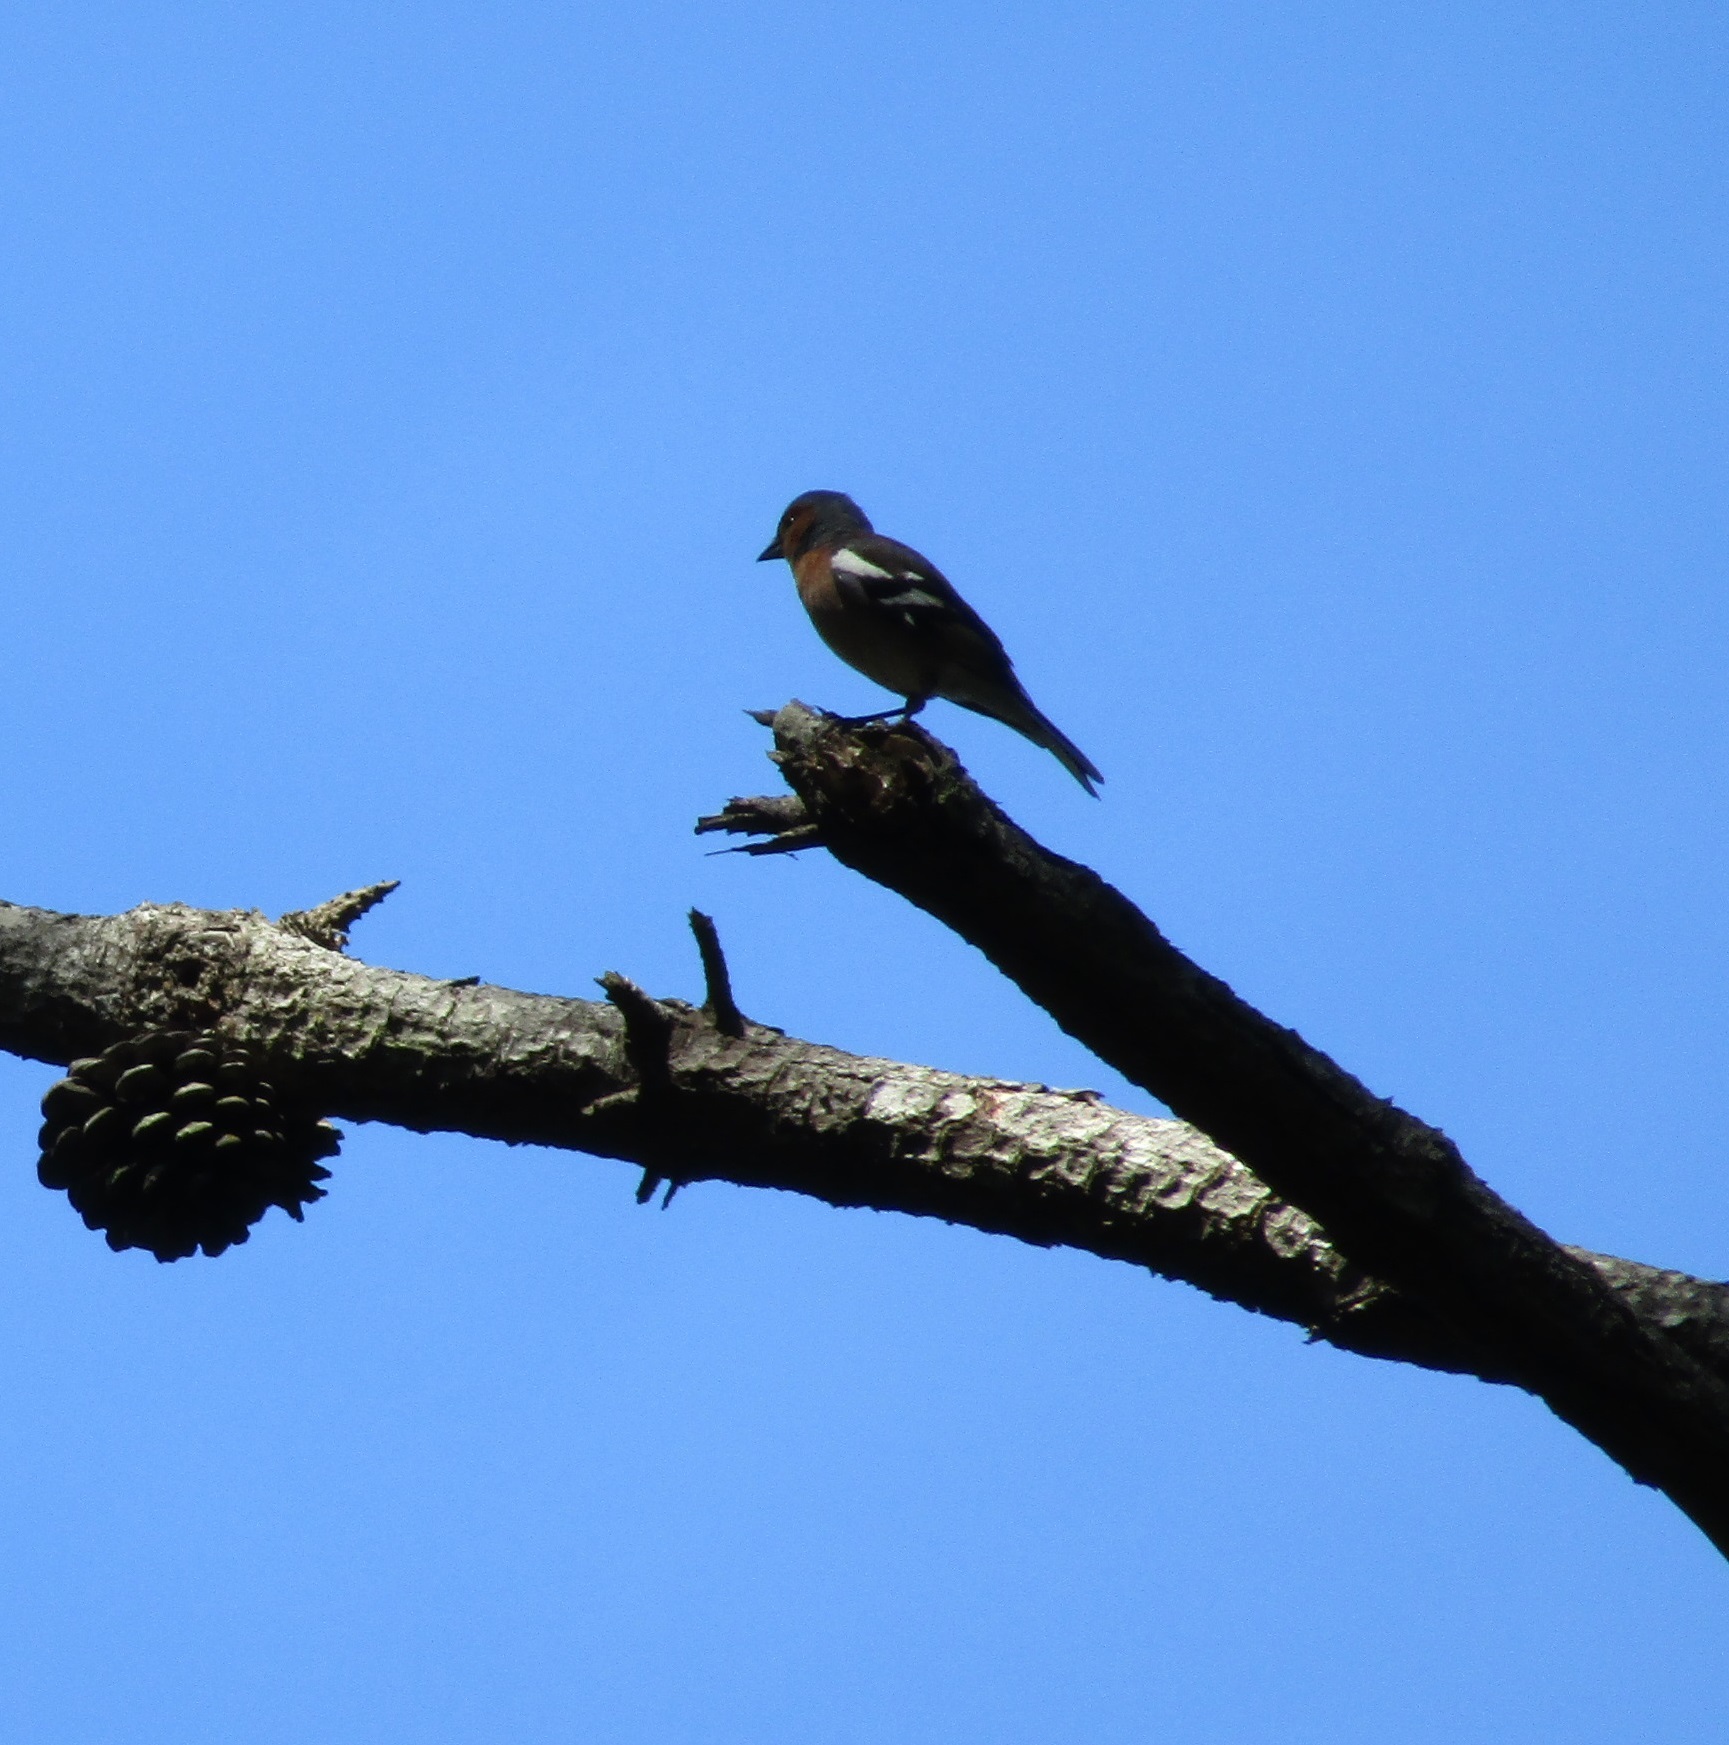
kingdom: Animalia
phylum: Chordata
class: Aves
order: Passeriformes
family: Fringillidae
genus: Fringilla
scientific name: Fringilla coelebs
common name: Common chaffinch
